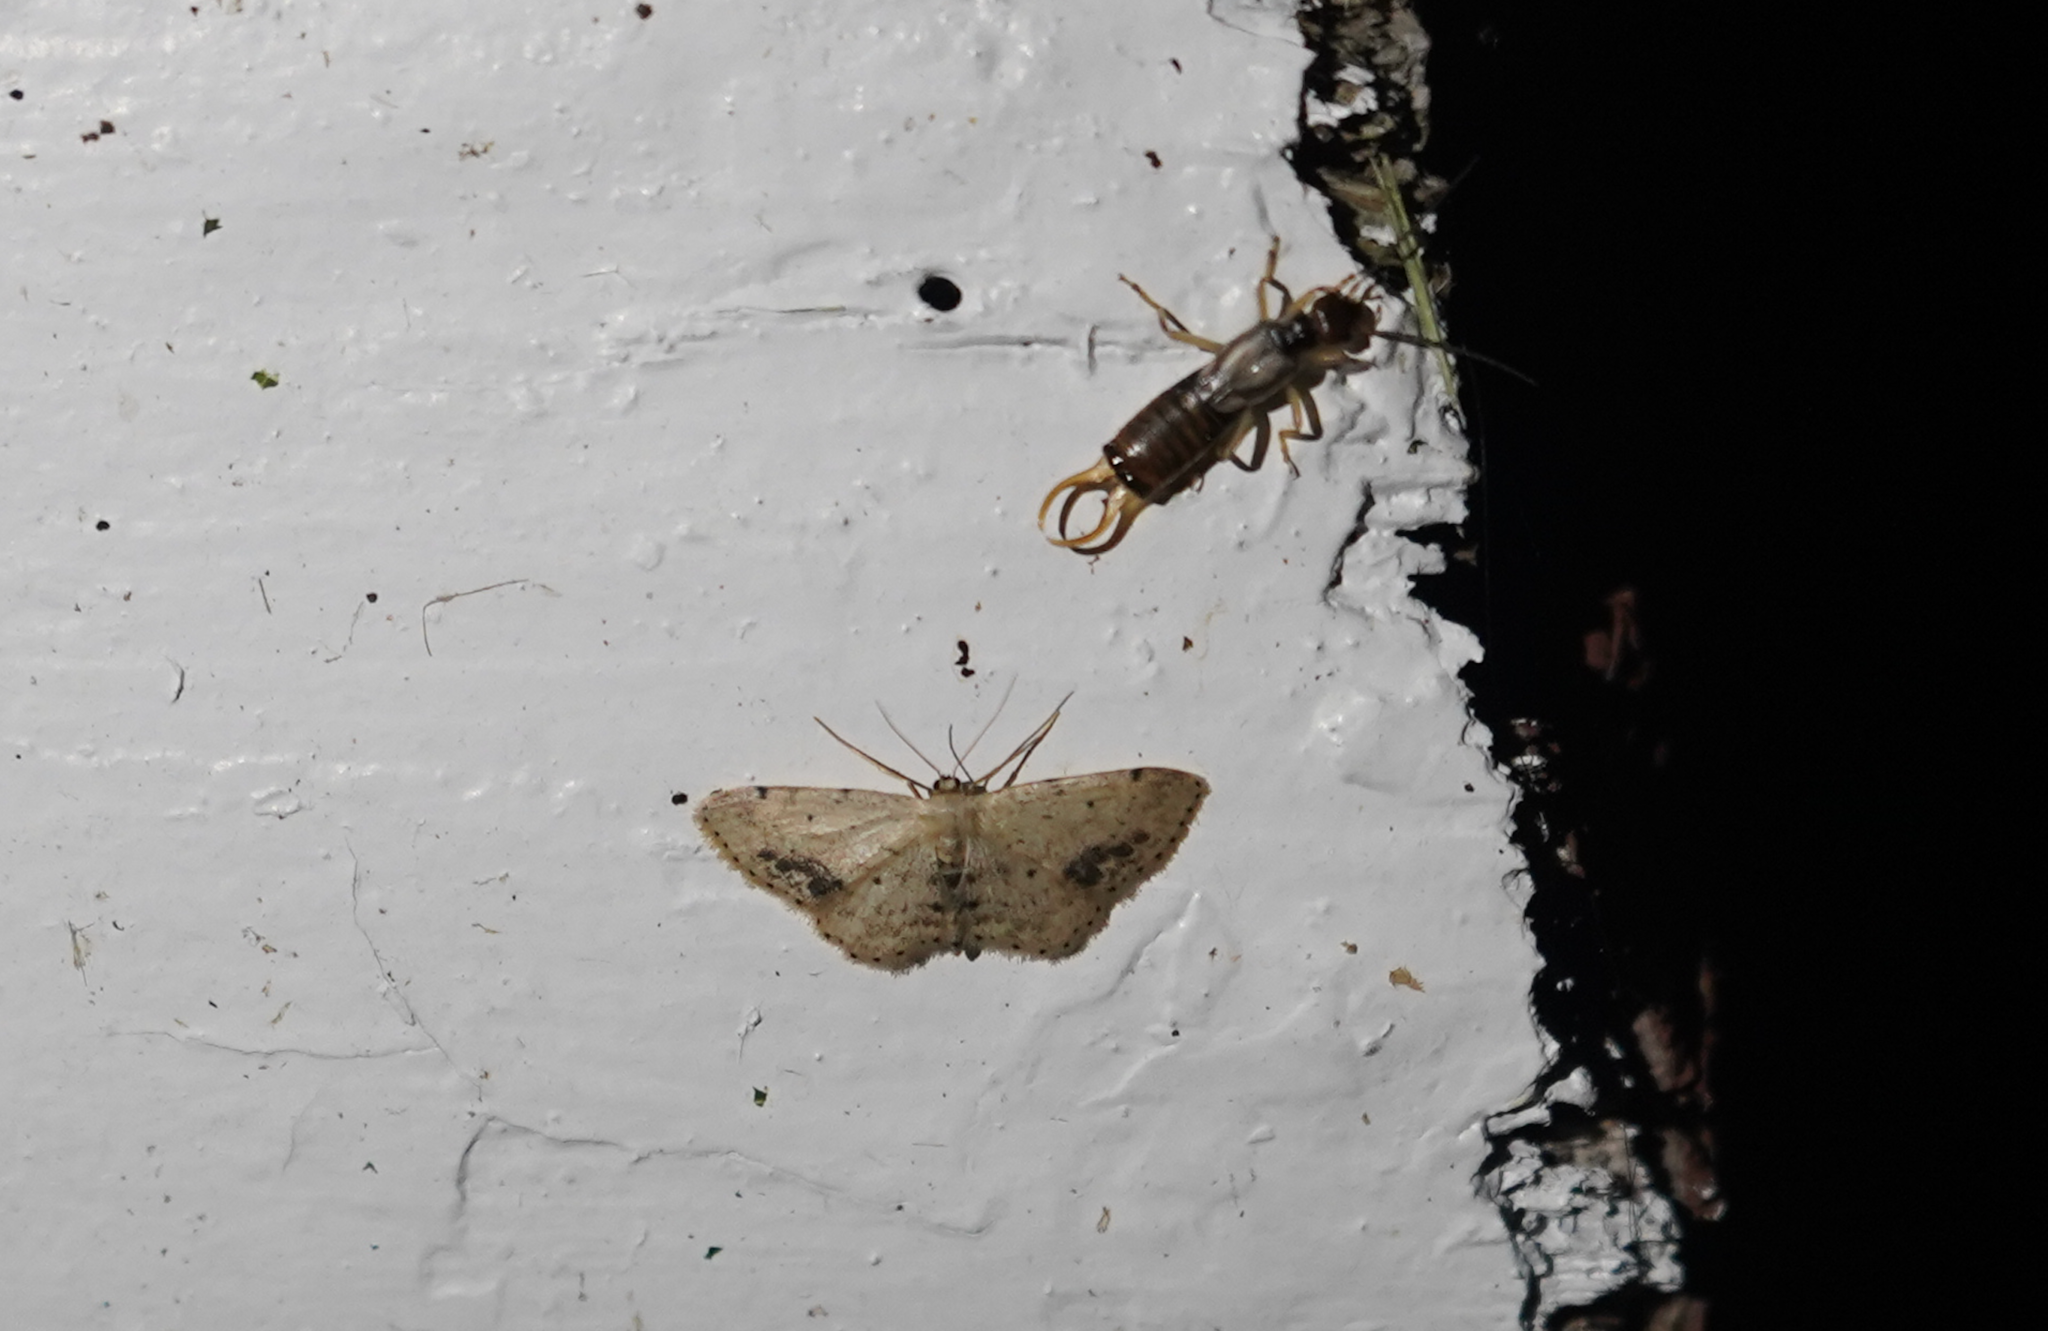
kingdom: Animalia
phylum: Arthropoda
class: Insecta
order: Lepidoptera
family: Geometridae
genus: Idaea
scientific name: Idaea dimidiata
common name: Single-dotted wave
